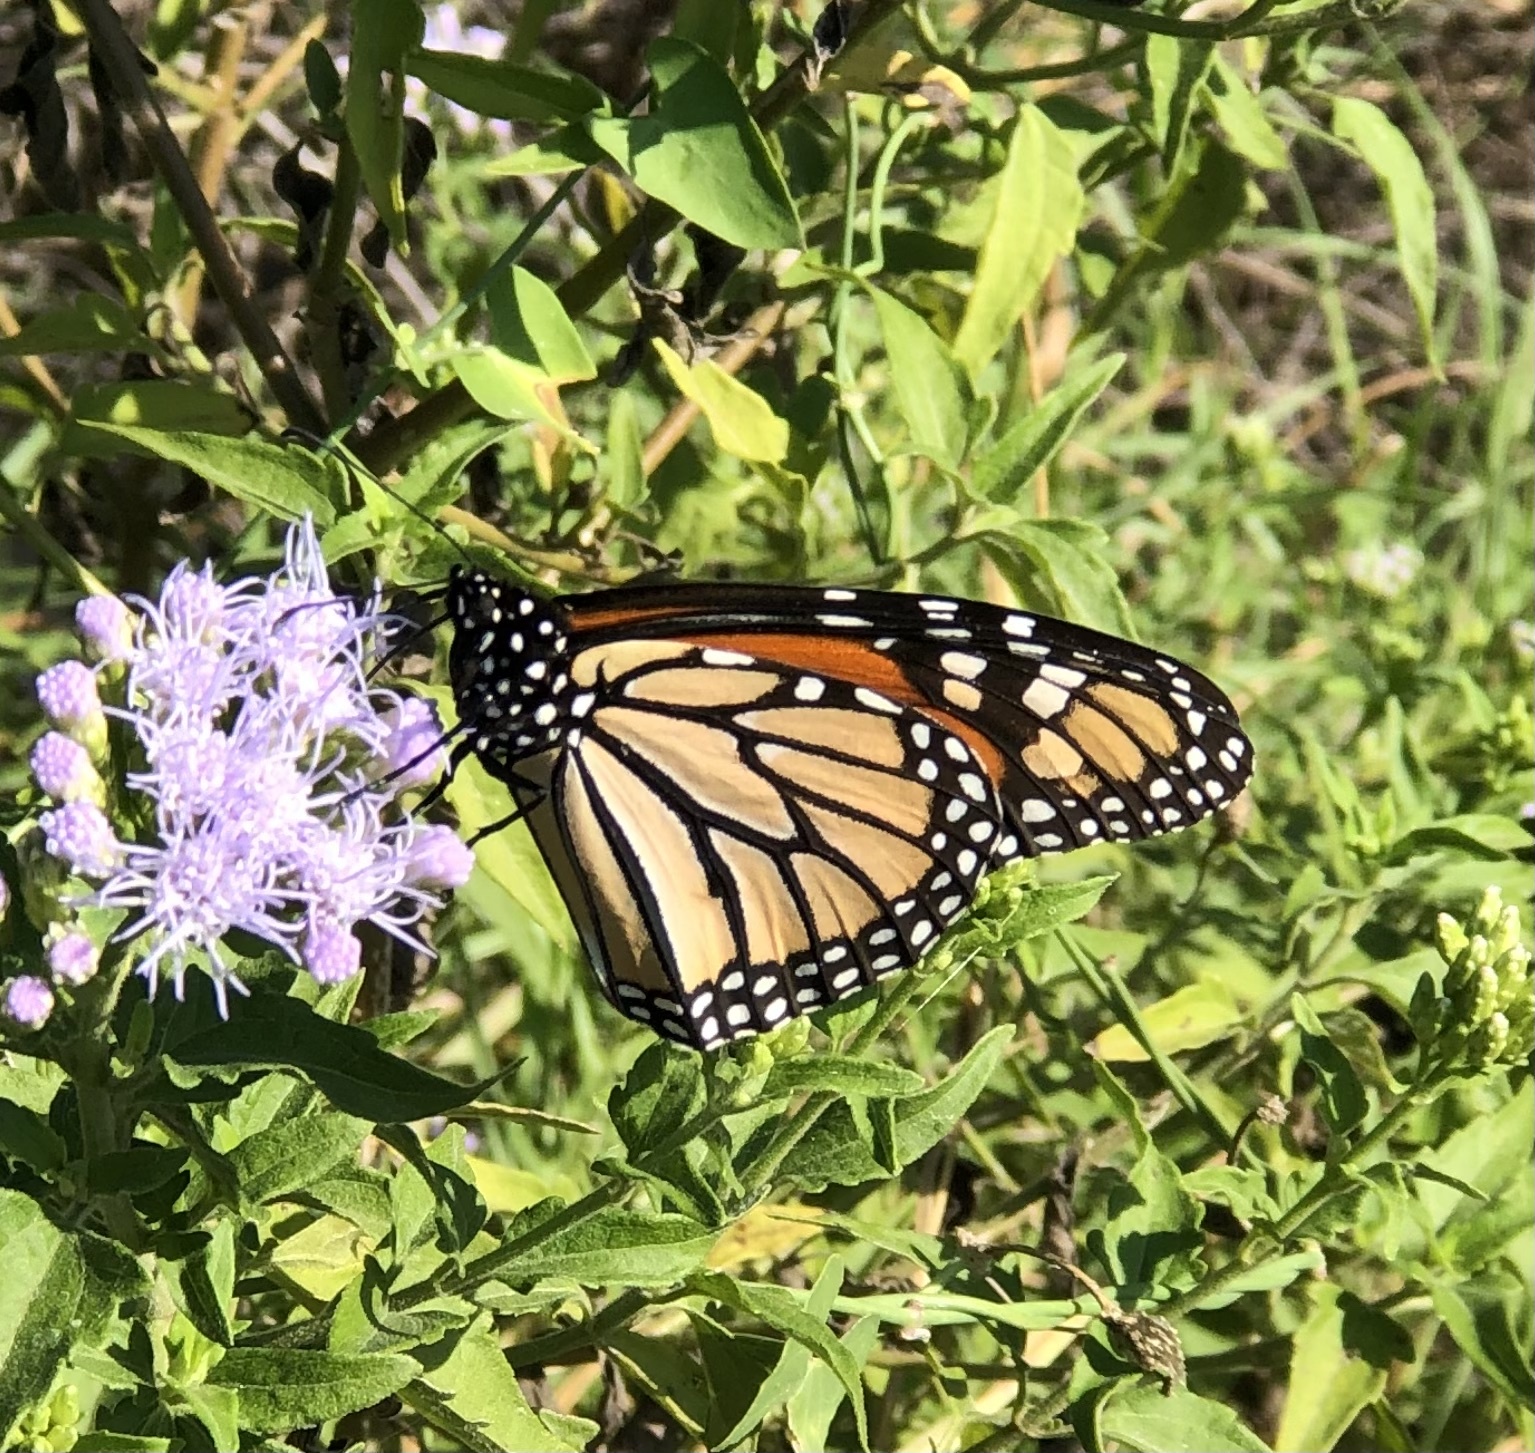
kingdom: Animalia
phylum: Arthropoda
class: Insecta
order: Lepidoptera
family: Nymphalidae
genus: Danaus
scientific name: Danaus plexippus
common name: Monarch
